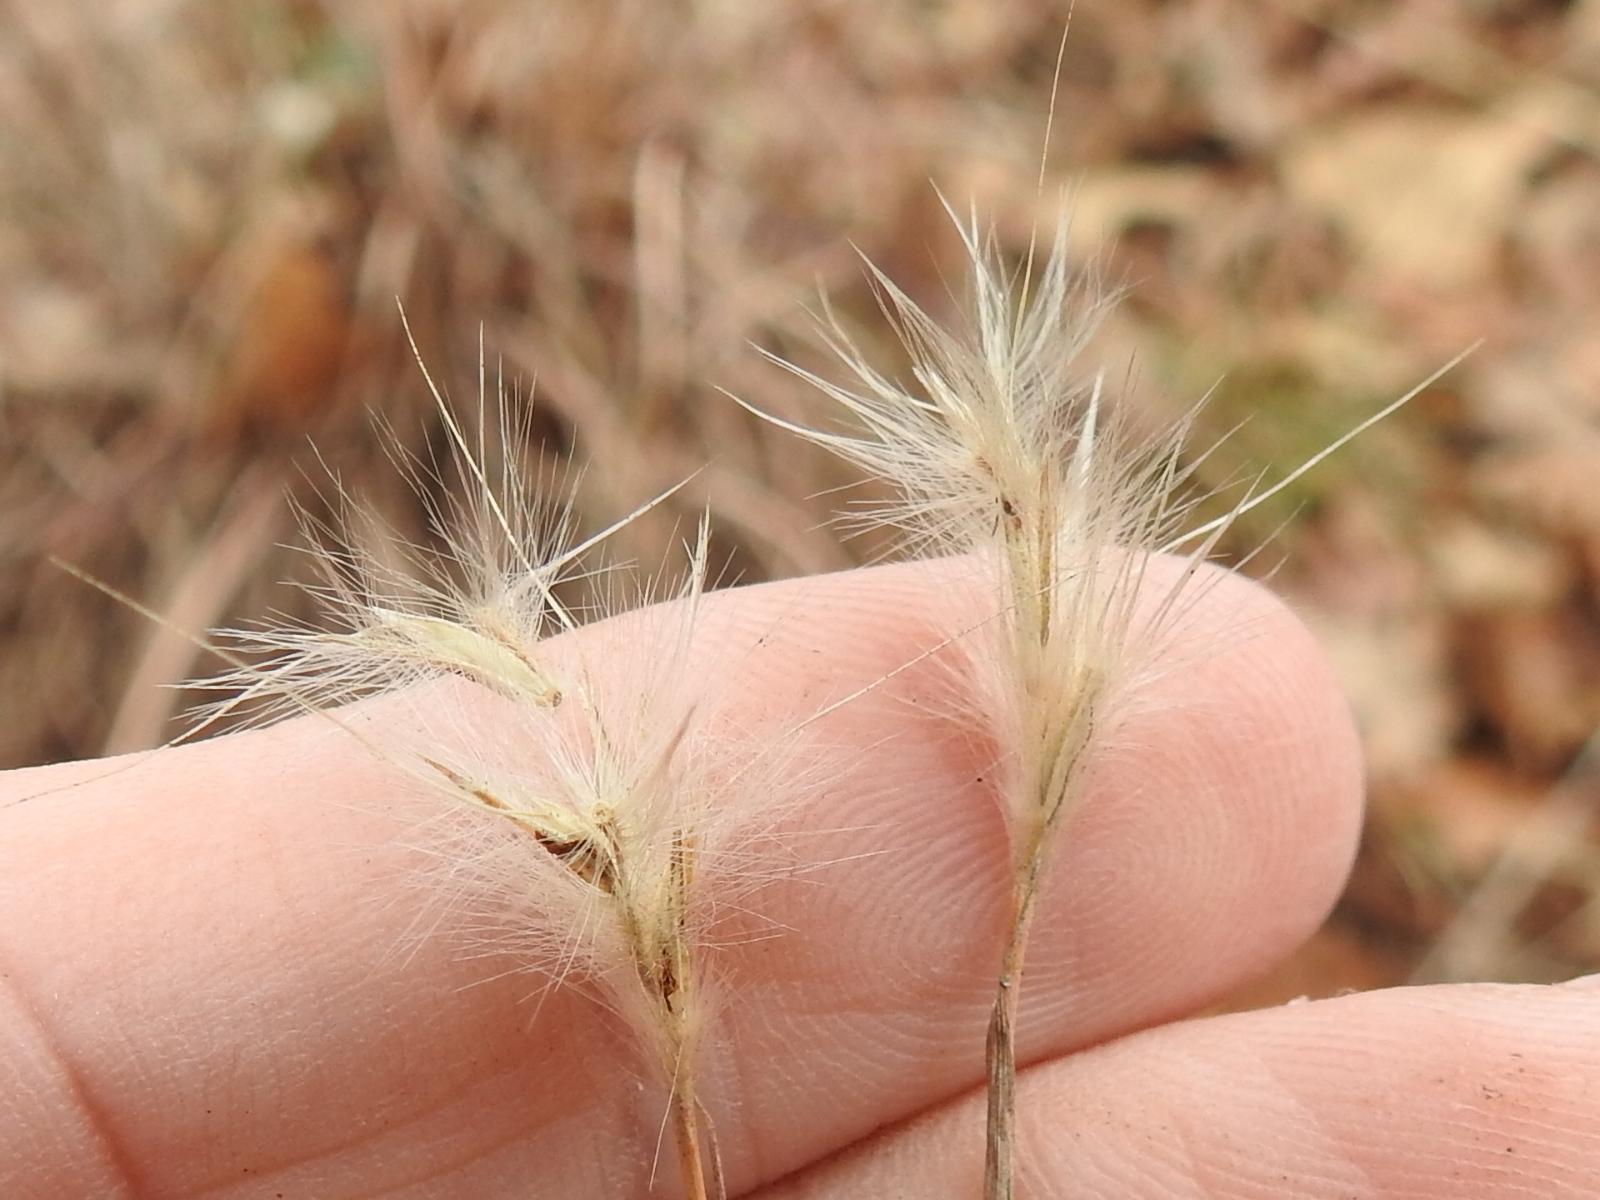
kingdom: Plantae
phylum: Tracheophyta
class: Liliopsida
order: Poales
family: Poaceae
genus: Andropogon
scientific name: Andropogon ternarius
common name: Split bluestem
